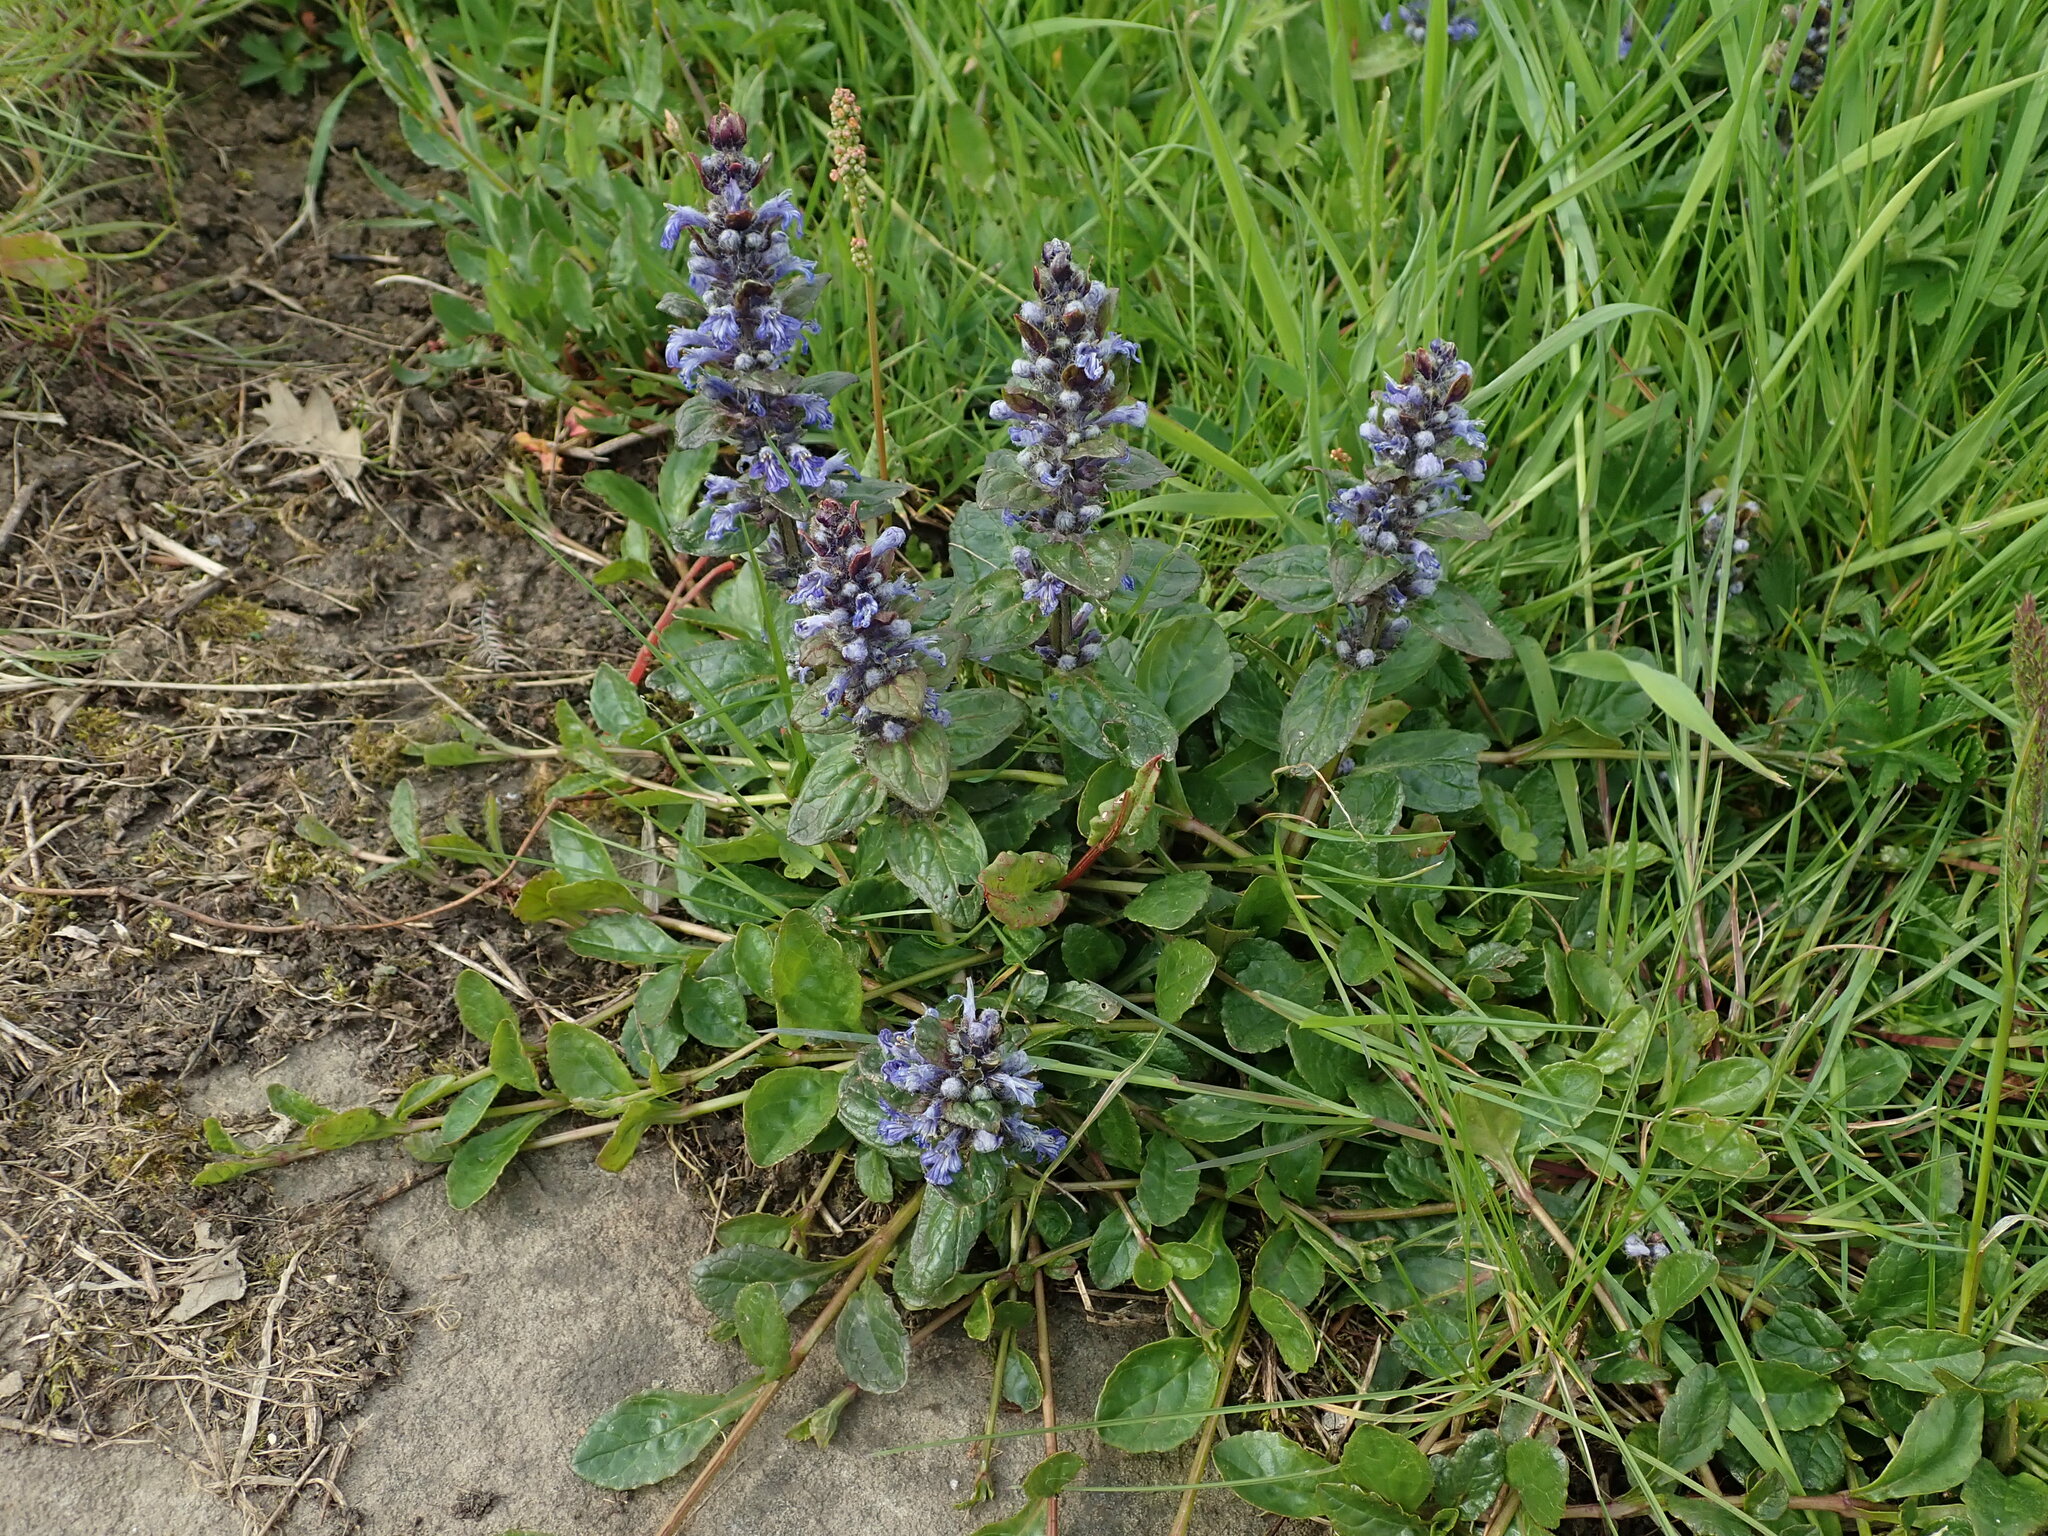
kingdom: Plantae
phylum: Tracheophyta
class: Magnoliopsida
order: Lamiales
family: Lamiaceae
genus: Ajuga
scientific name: Ajuga reptans
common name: Bugle
